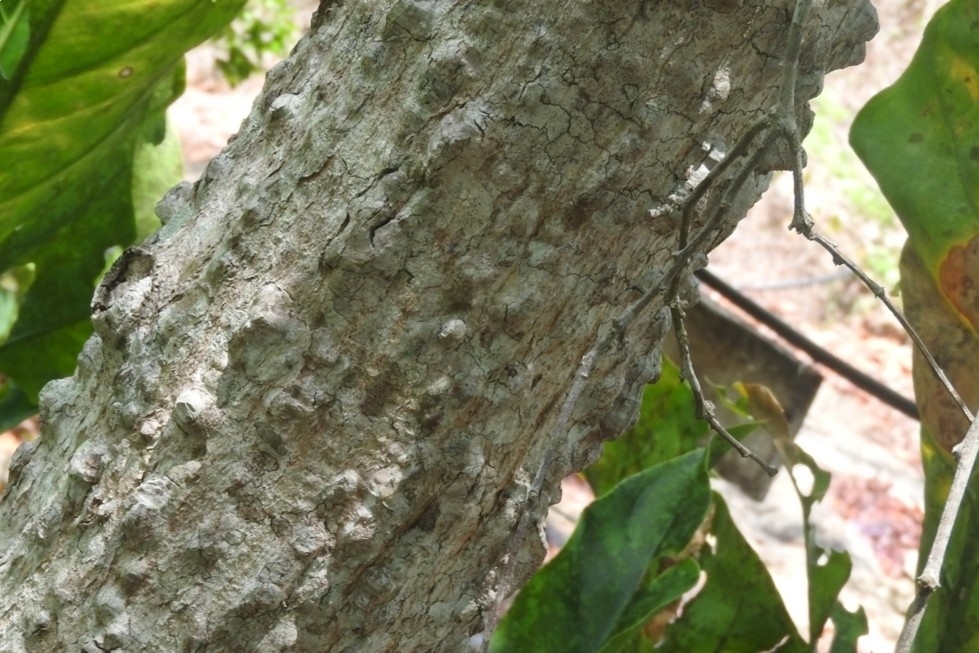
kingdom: Plantae
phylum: Tracheophyta
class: Magnoliopsida
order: Malvales
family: Malvaceae
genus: Ceiba
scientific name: Ceiba aesculifolia
